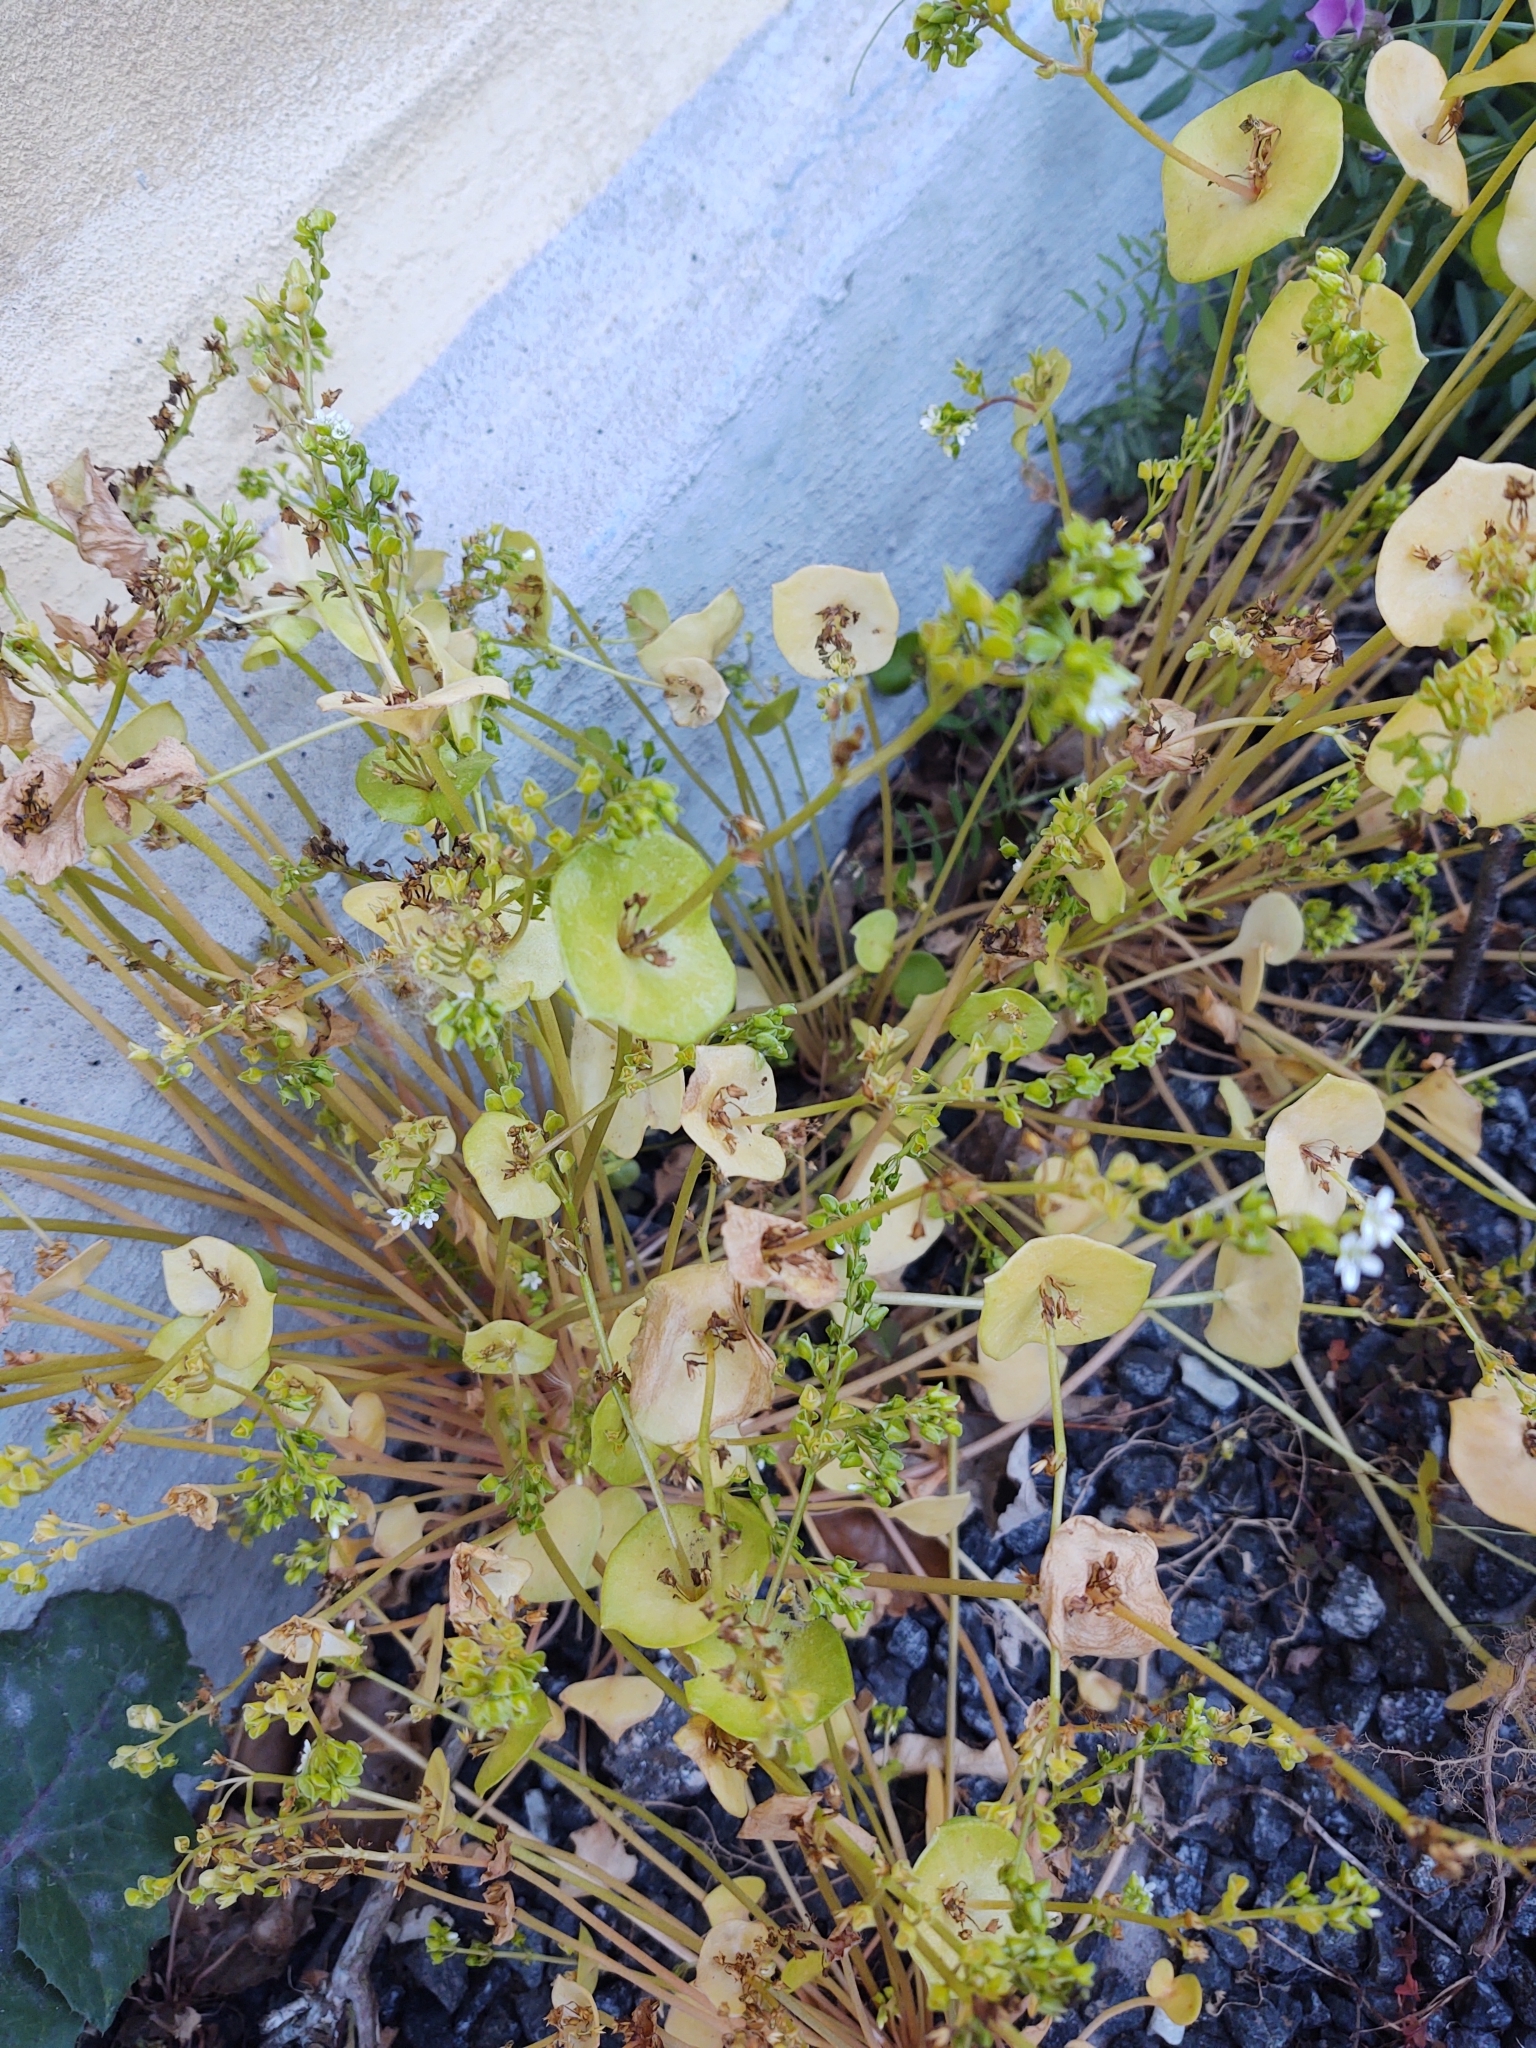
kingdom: Plantae
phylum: Tracheophyta
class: Magnoliopsida
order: Caryophyllales
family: Montiaceae
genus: Claytonia
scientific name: Claytonia perfoliata
